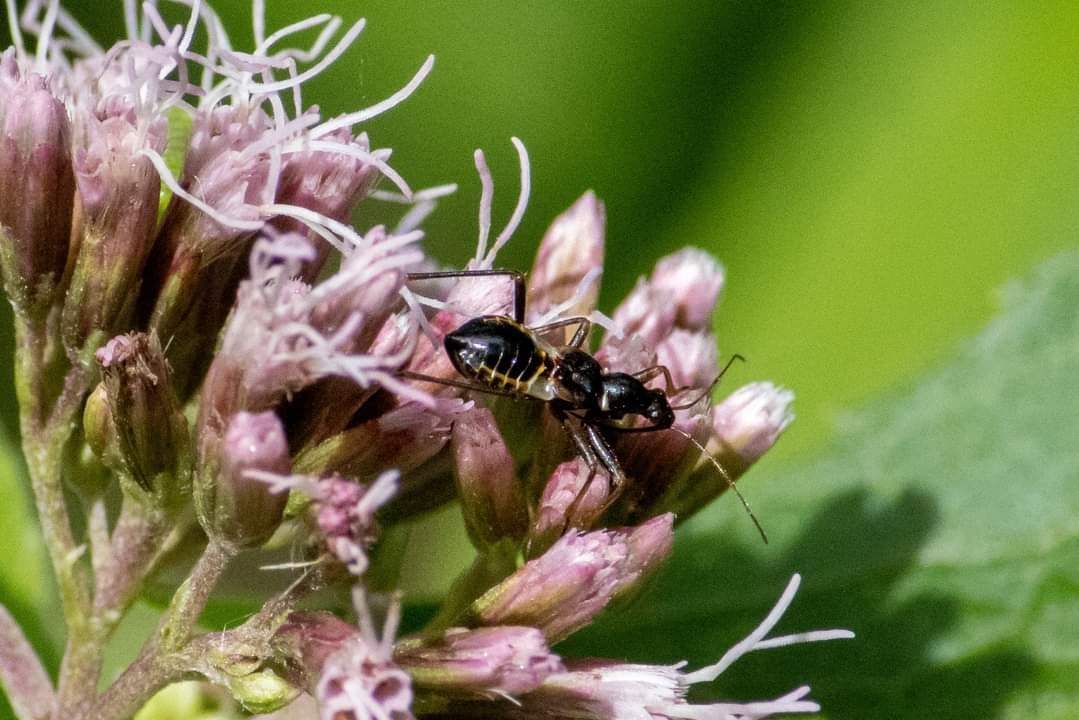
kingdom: Animalia
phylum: Arthropoda
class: Insecta
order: Hemiptera
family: Nabidae
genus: Himacerus
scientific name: Himacerus mirmicoides
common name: Ant damsel bug
